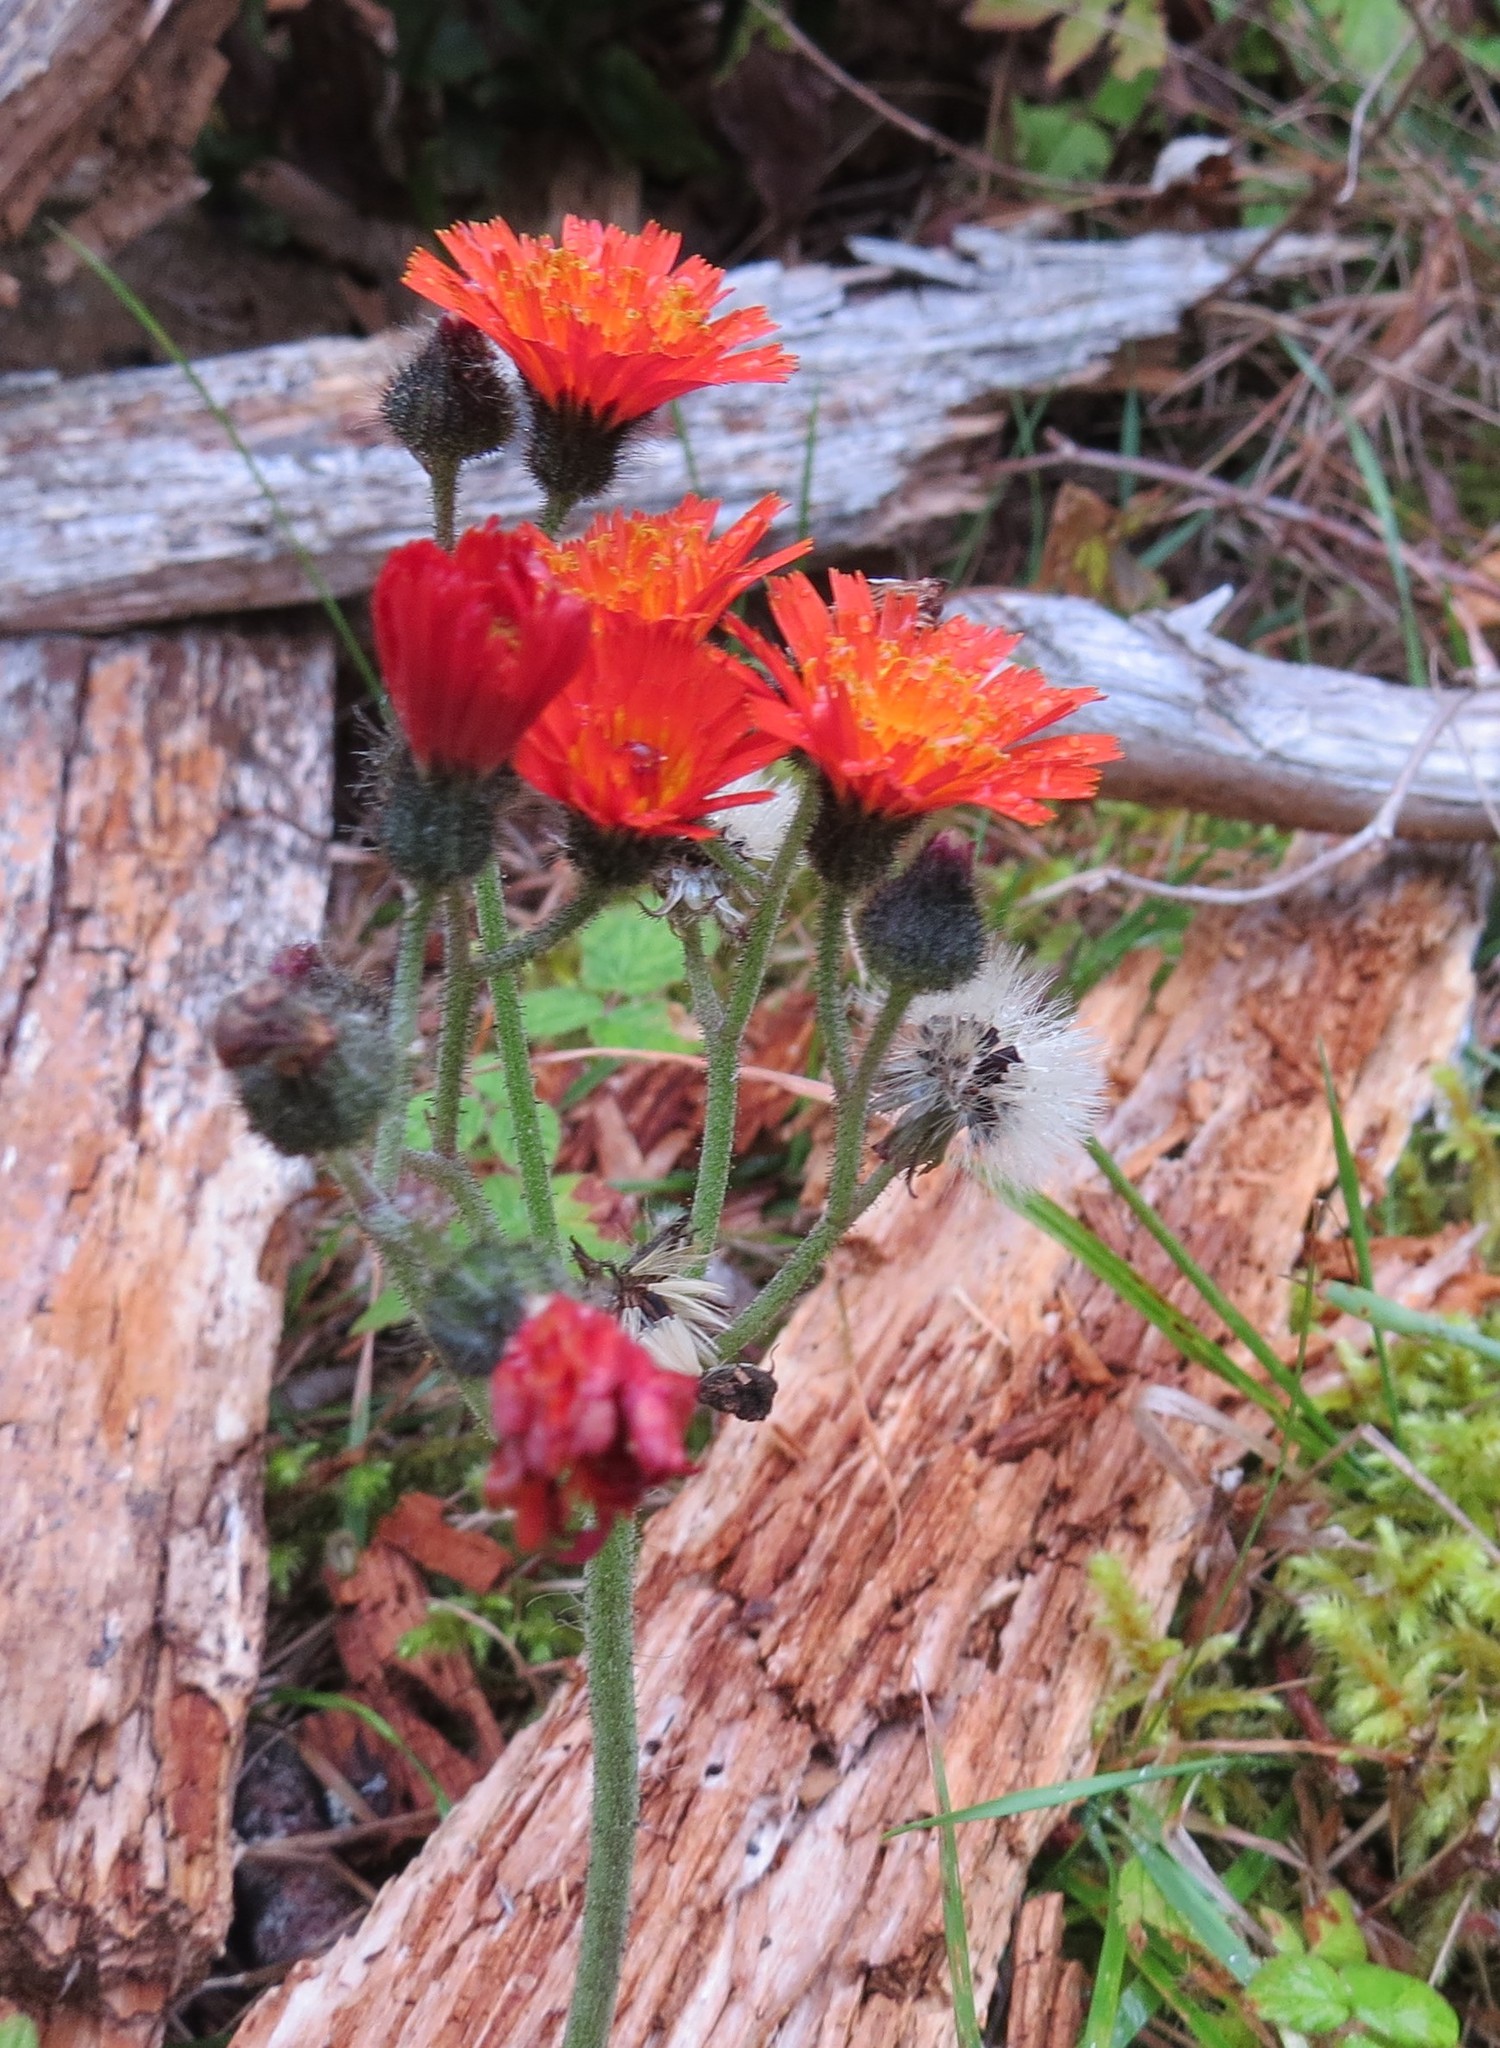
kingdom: Plantae
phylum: Tracheophyta
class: Magnoliopsida
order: Asterales
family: Asteraceae
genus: Pilosella
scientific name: Pilosella aurantiaca
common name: Fox-and-cubs
